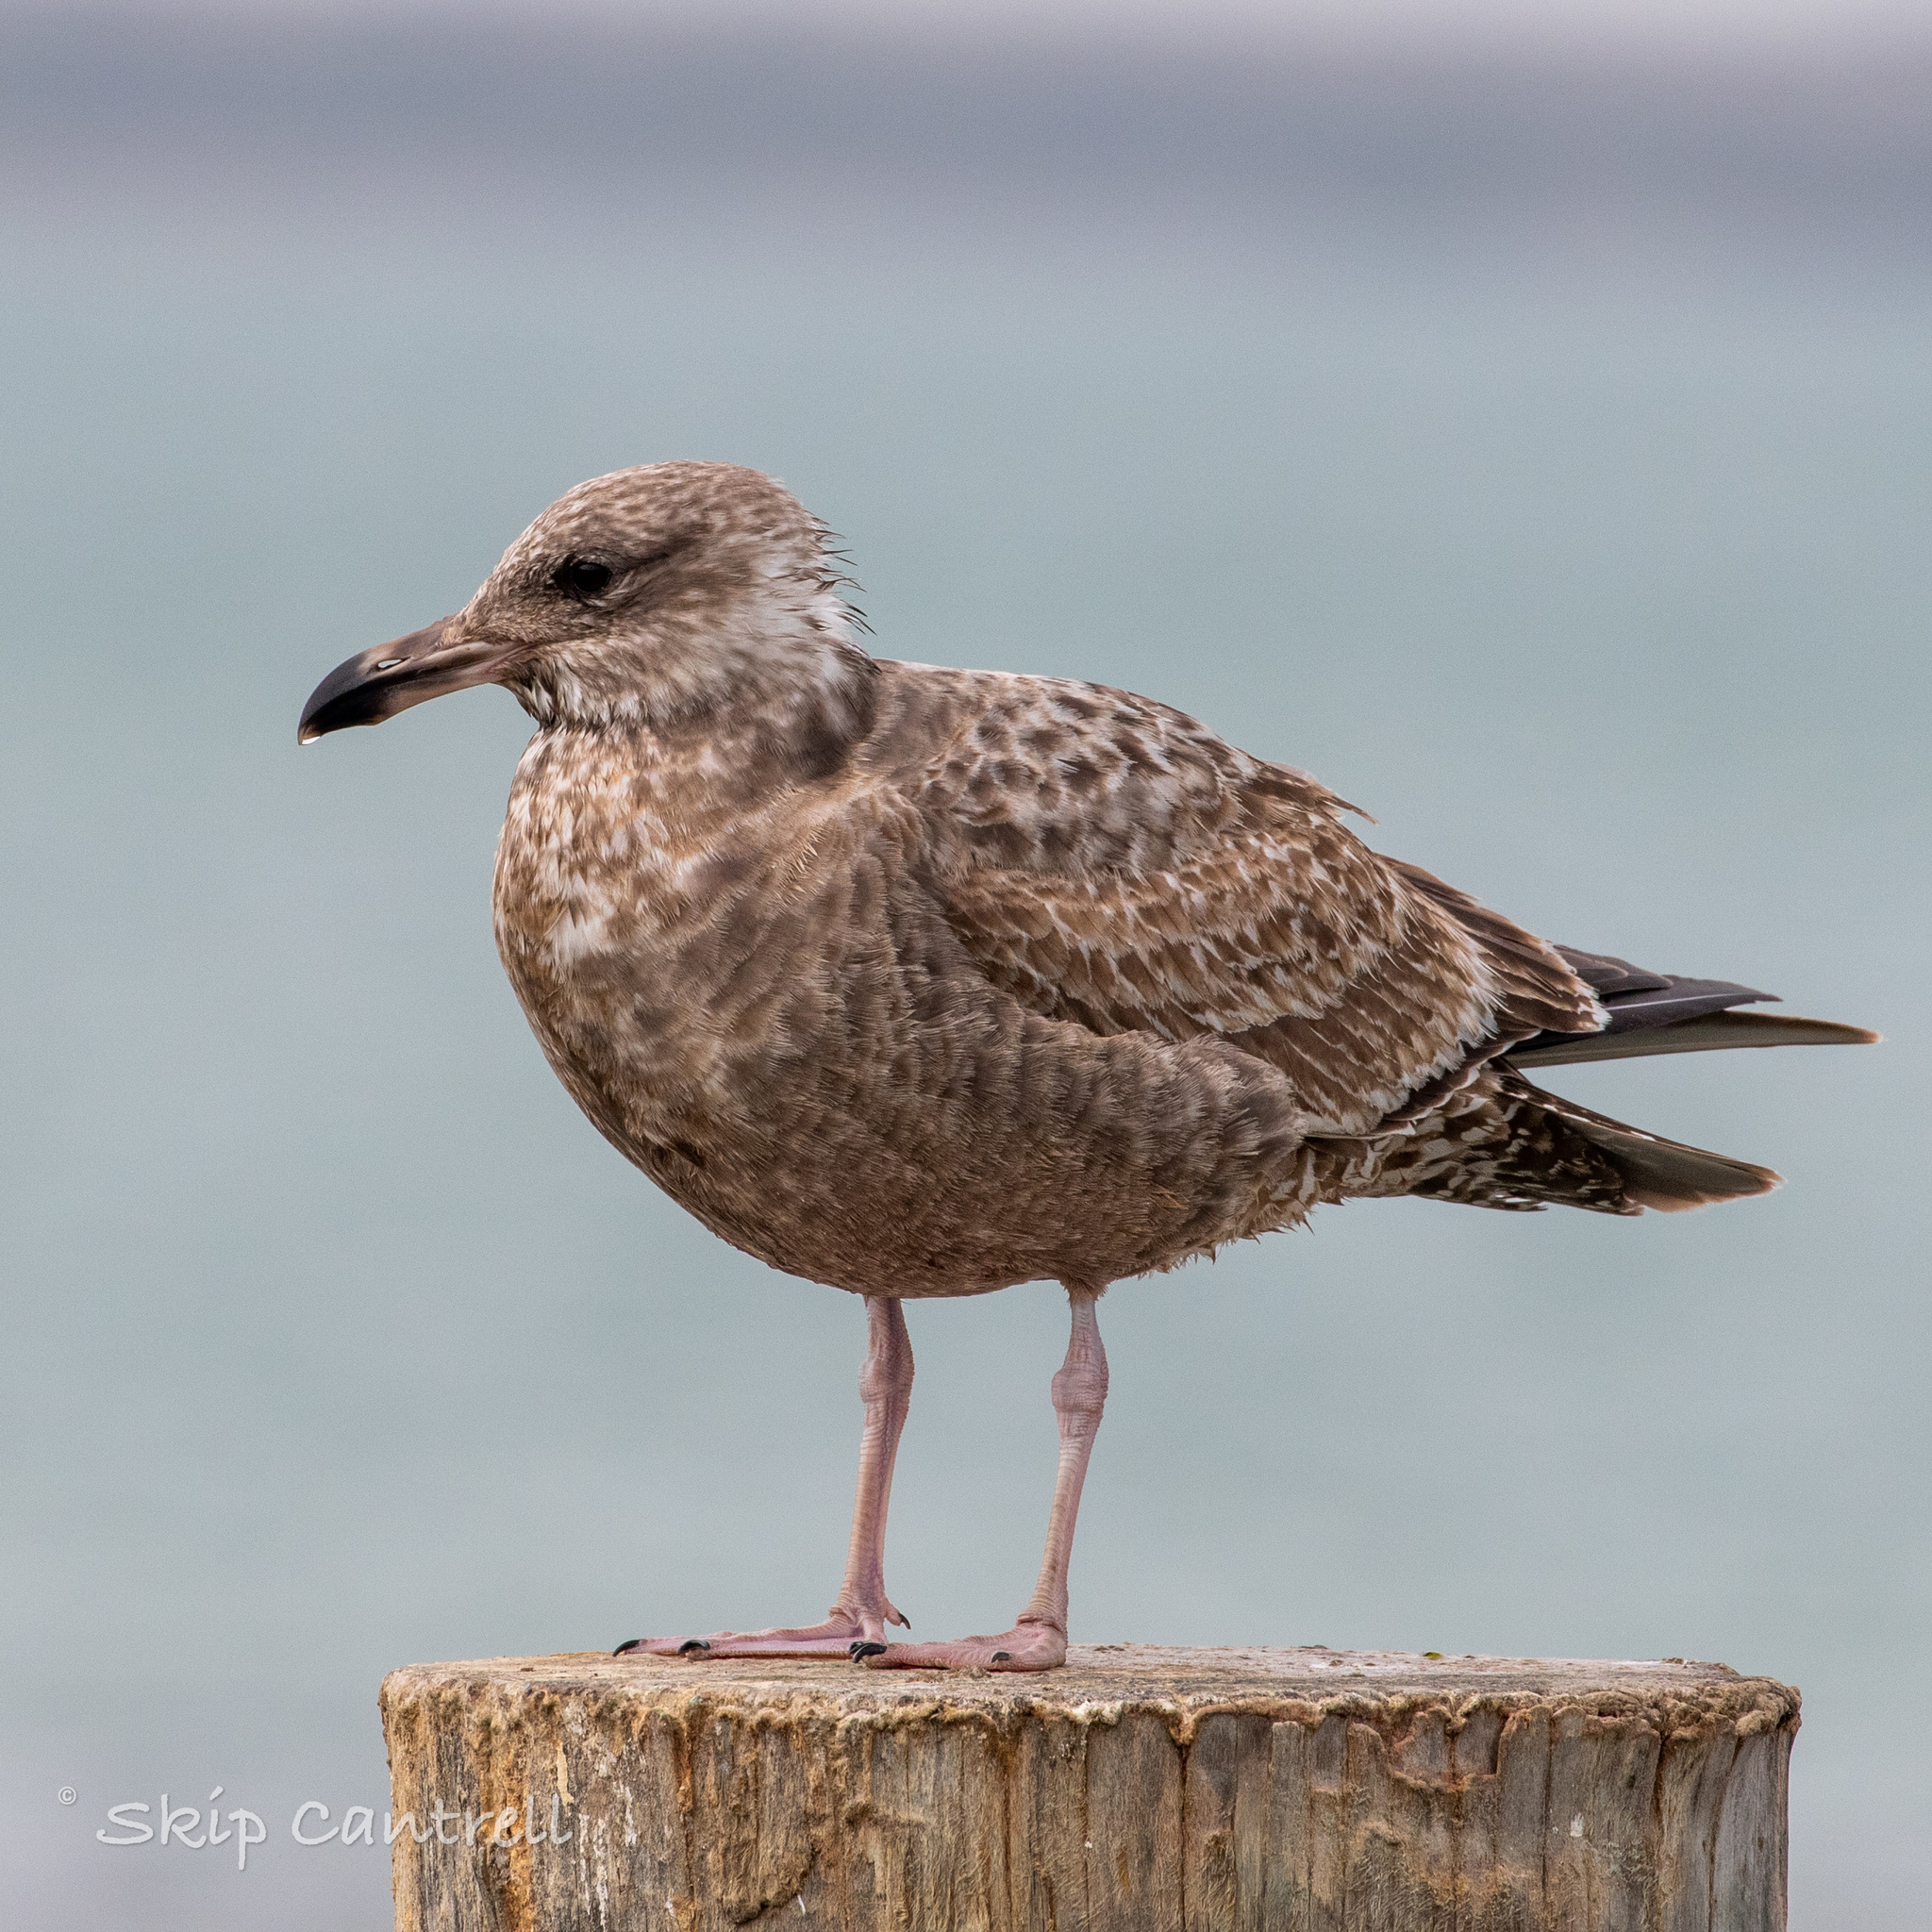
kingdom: Animalia
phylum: Chordata
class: Aves
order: Charadriiformes
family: Laridae
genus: Larus
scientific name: Larus argentatus
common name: Herring gull
